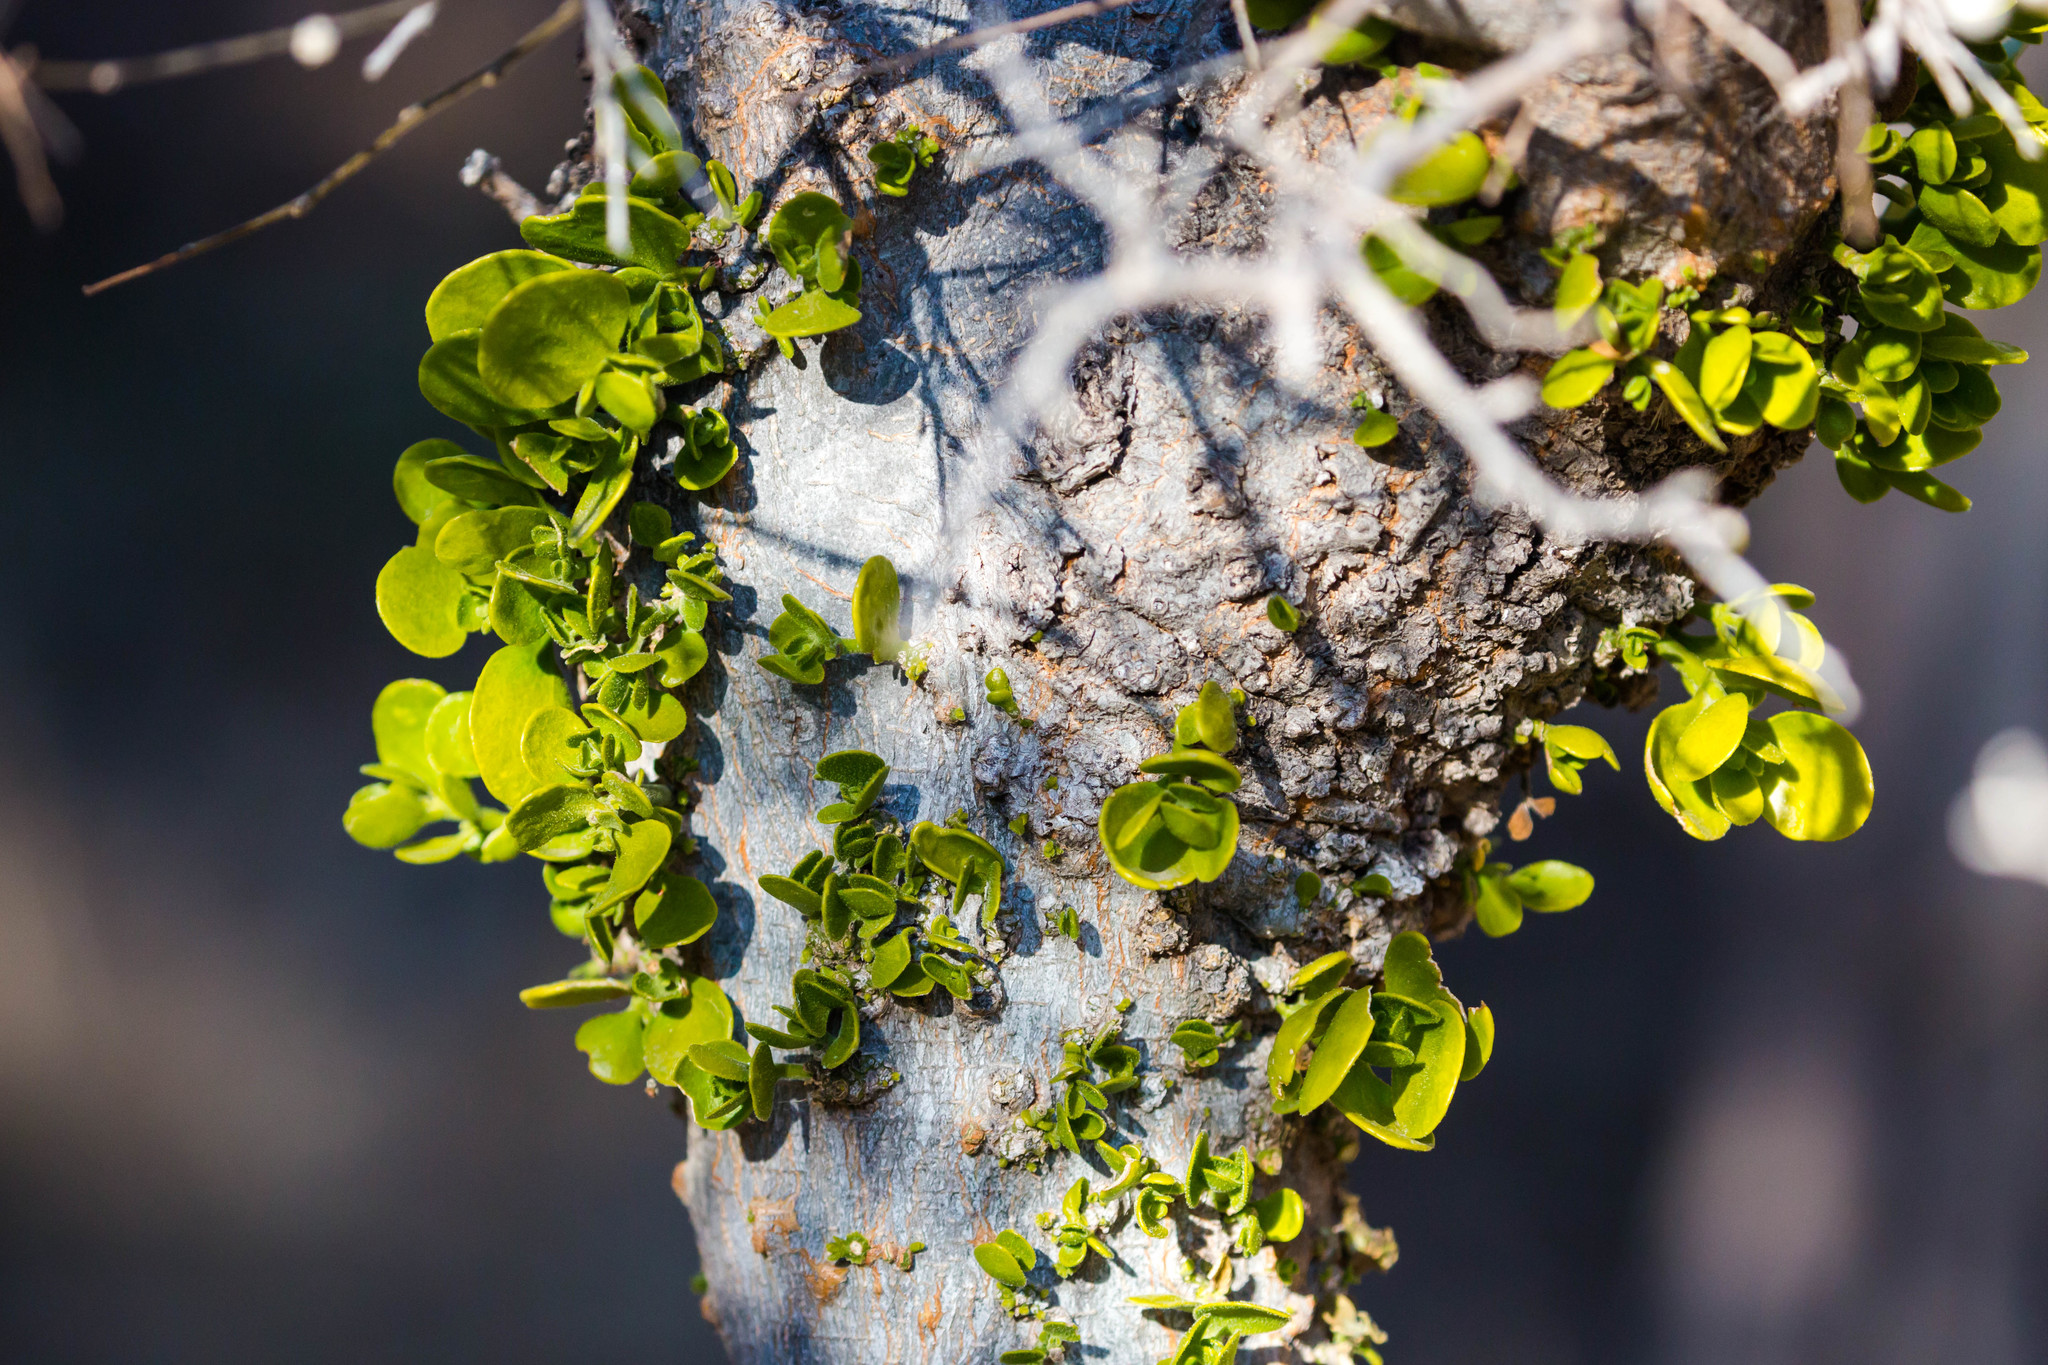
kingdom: Plantae
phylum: Tracheophyta
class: Magnoliopsida
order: Santalales
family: Viscaceae
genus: Phoradendron
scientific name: Phoradendron
